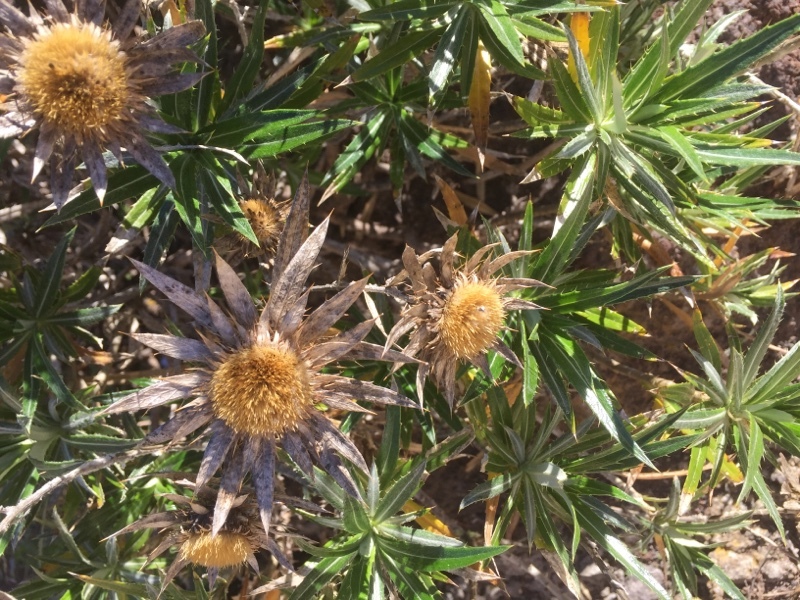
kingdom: Plantae
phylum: Tracheophyta
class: Magnoliopsida
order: Asterales
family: Asteraceae
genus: Carlina
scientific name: Carlina salicifolia
